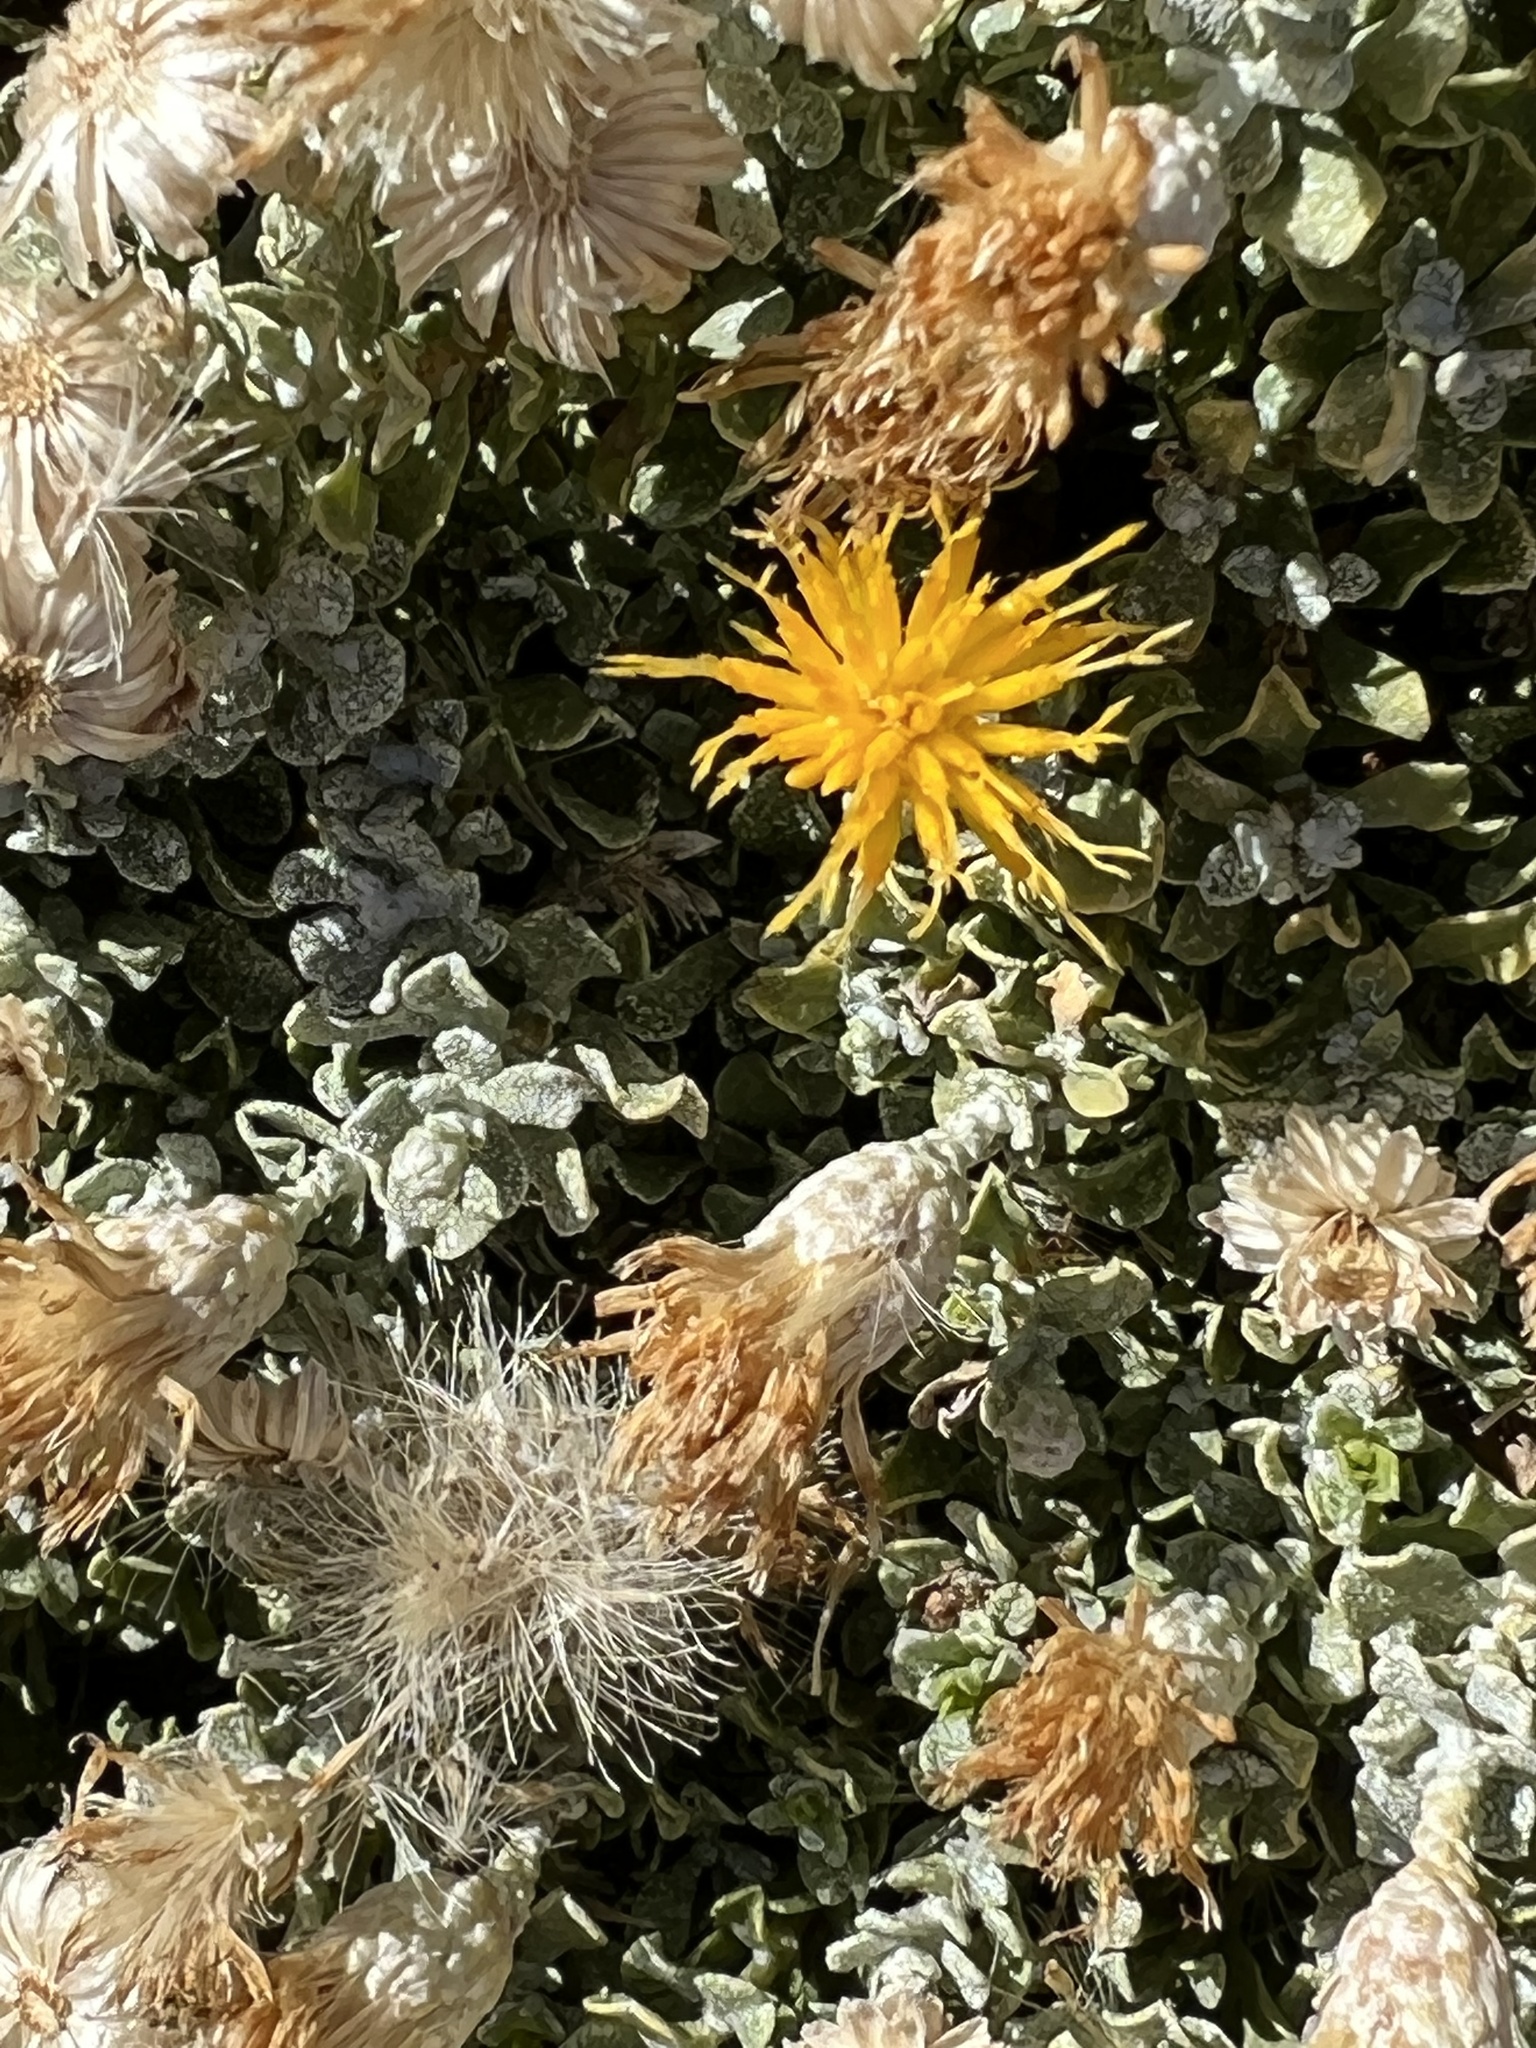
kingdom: Plantae
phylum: Tracheophyta
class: Magnoliopsida
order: Asterales
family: Asteraceae
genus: Ericameria
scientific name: Ericameria cuneata
